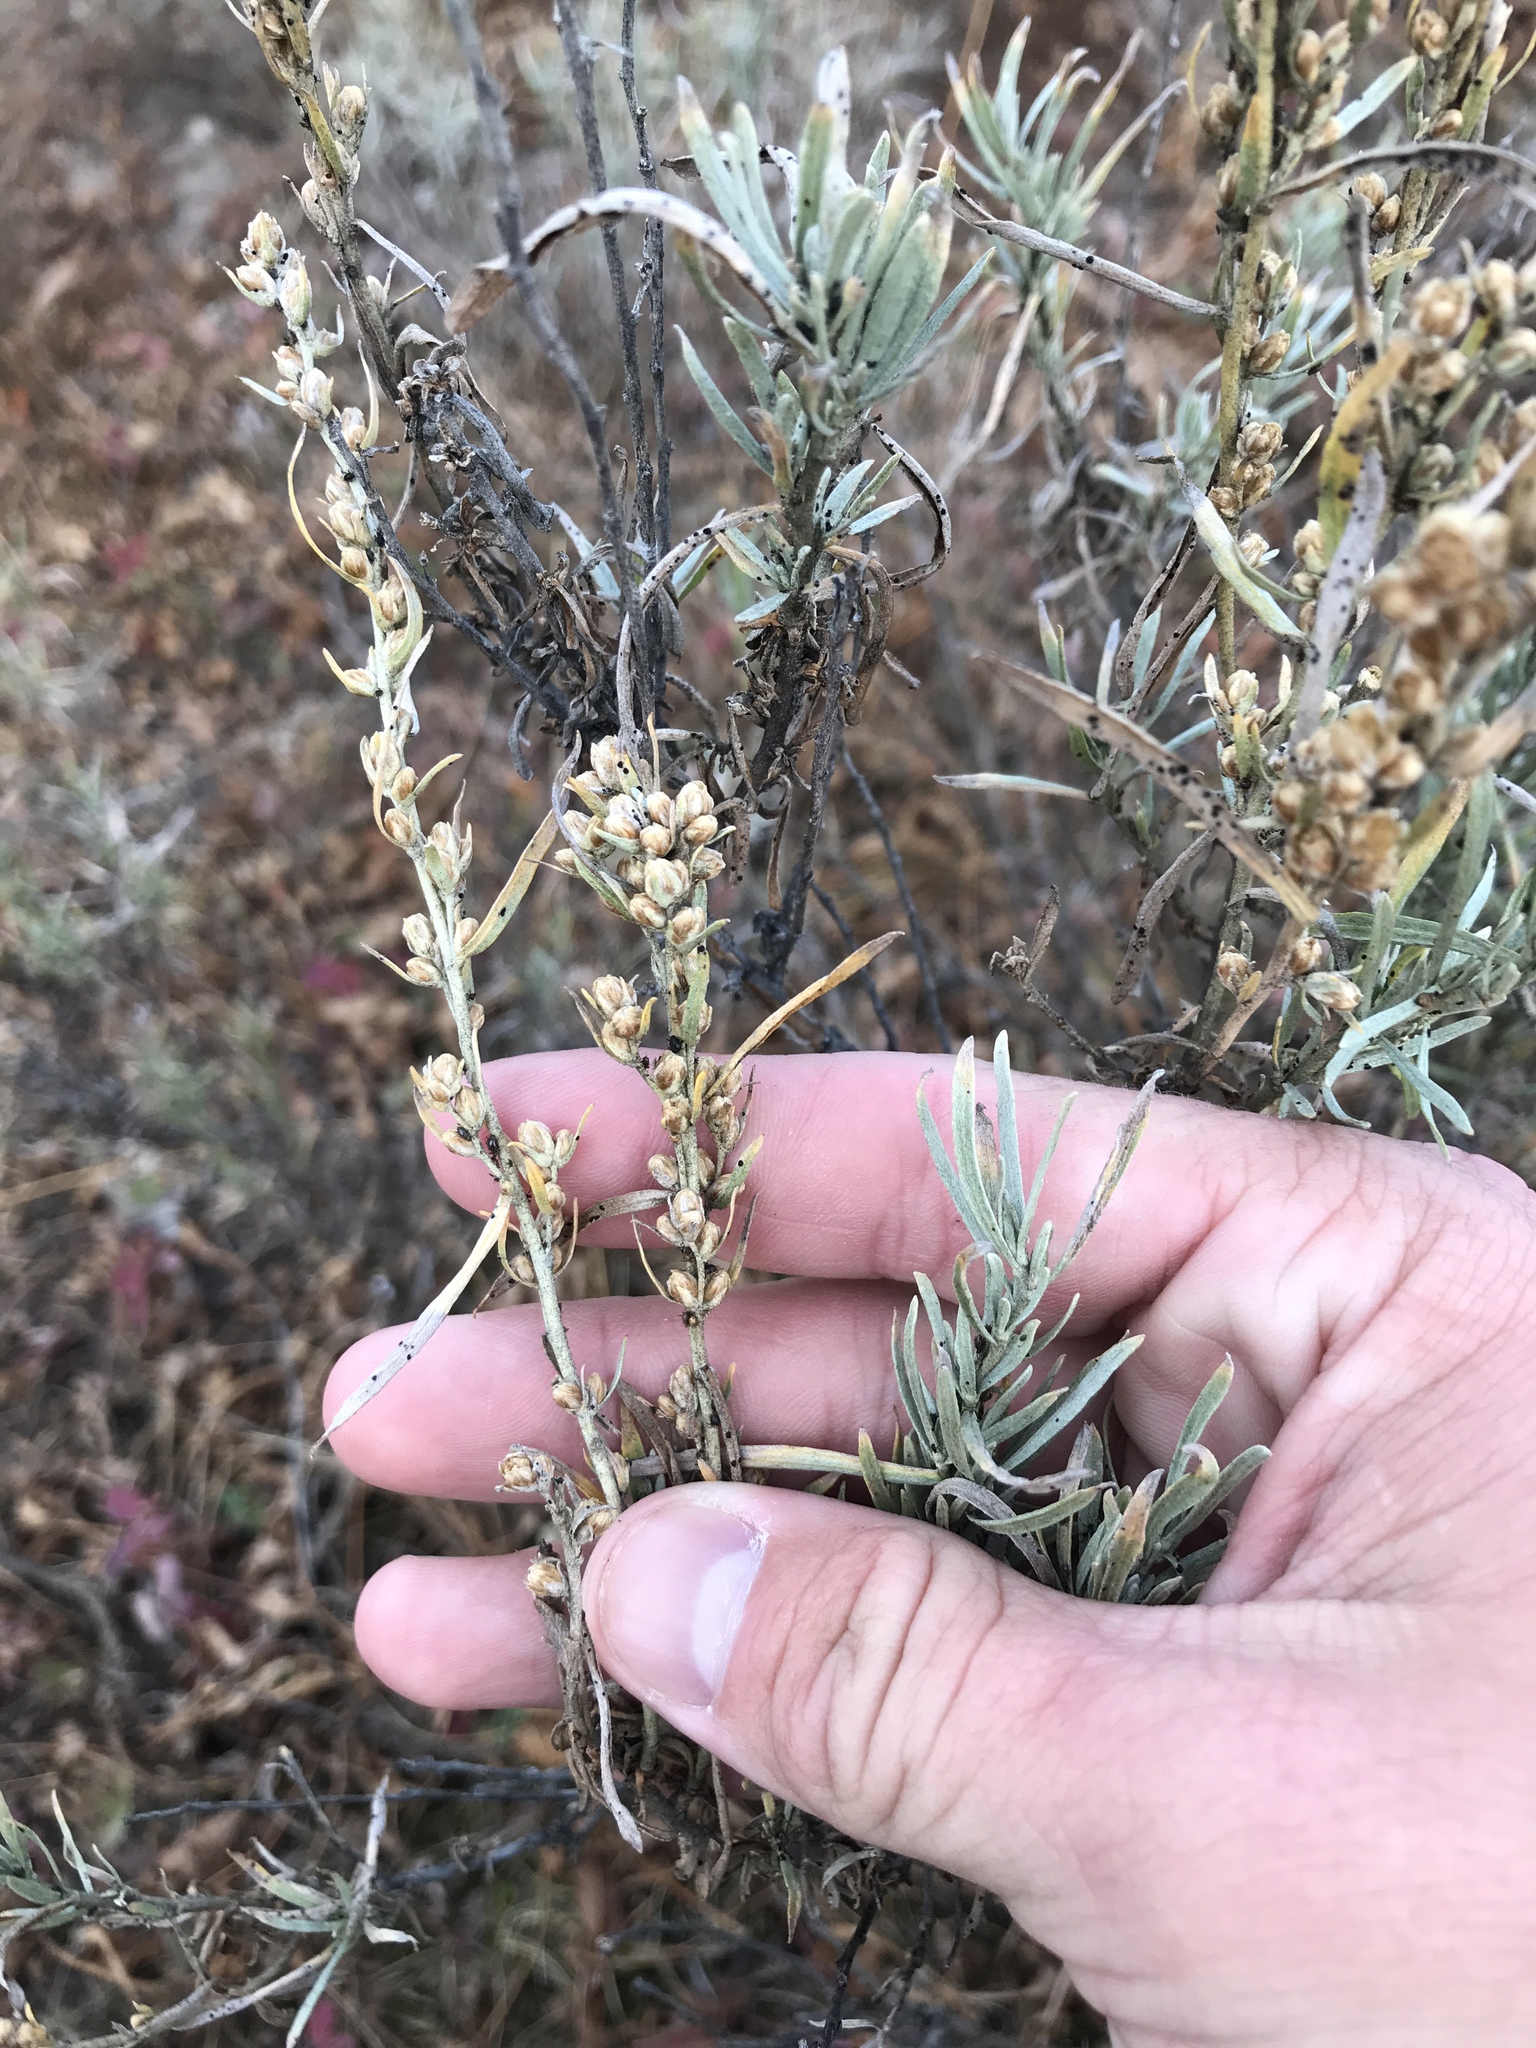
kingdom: Plantae
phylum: Tracheophyta
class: Magnoliopsida
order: Asterales
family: Asteraceae
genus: Artemisia
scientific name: Artemisia cana
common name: Silver sagebrush
